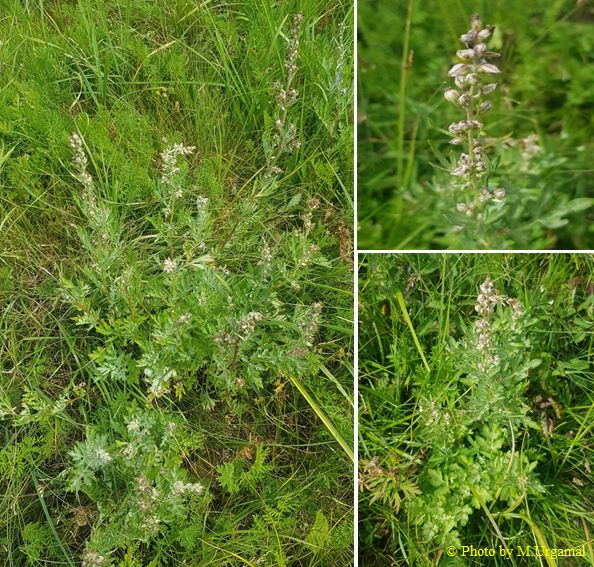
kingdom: Plantae
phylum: Tracheophyta
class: Magnoliopsida
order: Asterales
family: Asteraceae
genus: Artemisia
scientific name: Artemisia absinthium
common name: Wormwood
